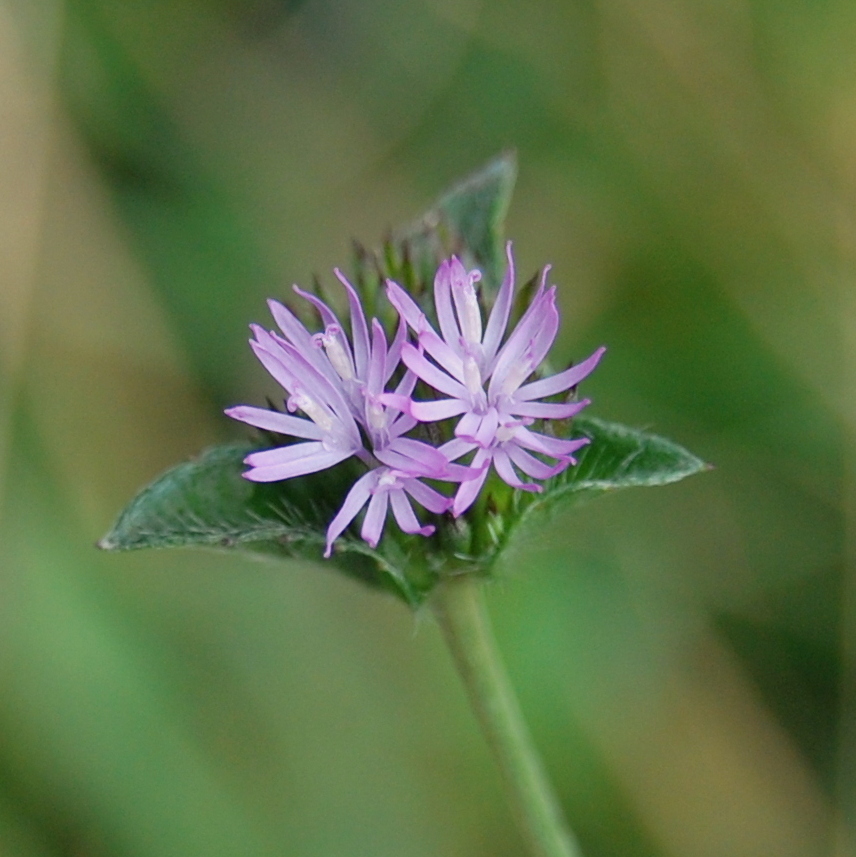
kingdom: Plantae
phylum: Tracheophyta
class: Magnoliopsida
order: Asterales
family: Asteraceae
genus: Elephantopus
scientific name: Elephantopus mollis
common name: Soft elephantsfoot
